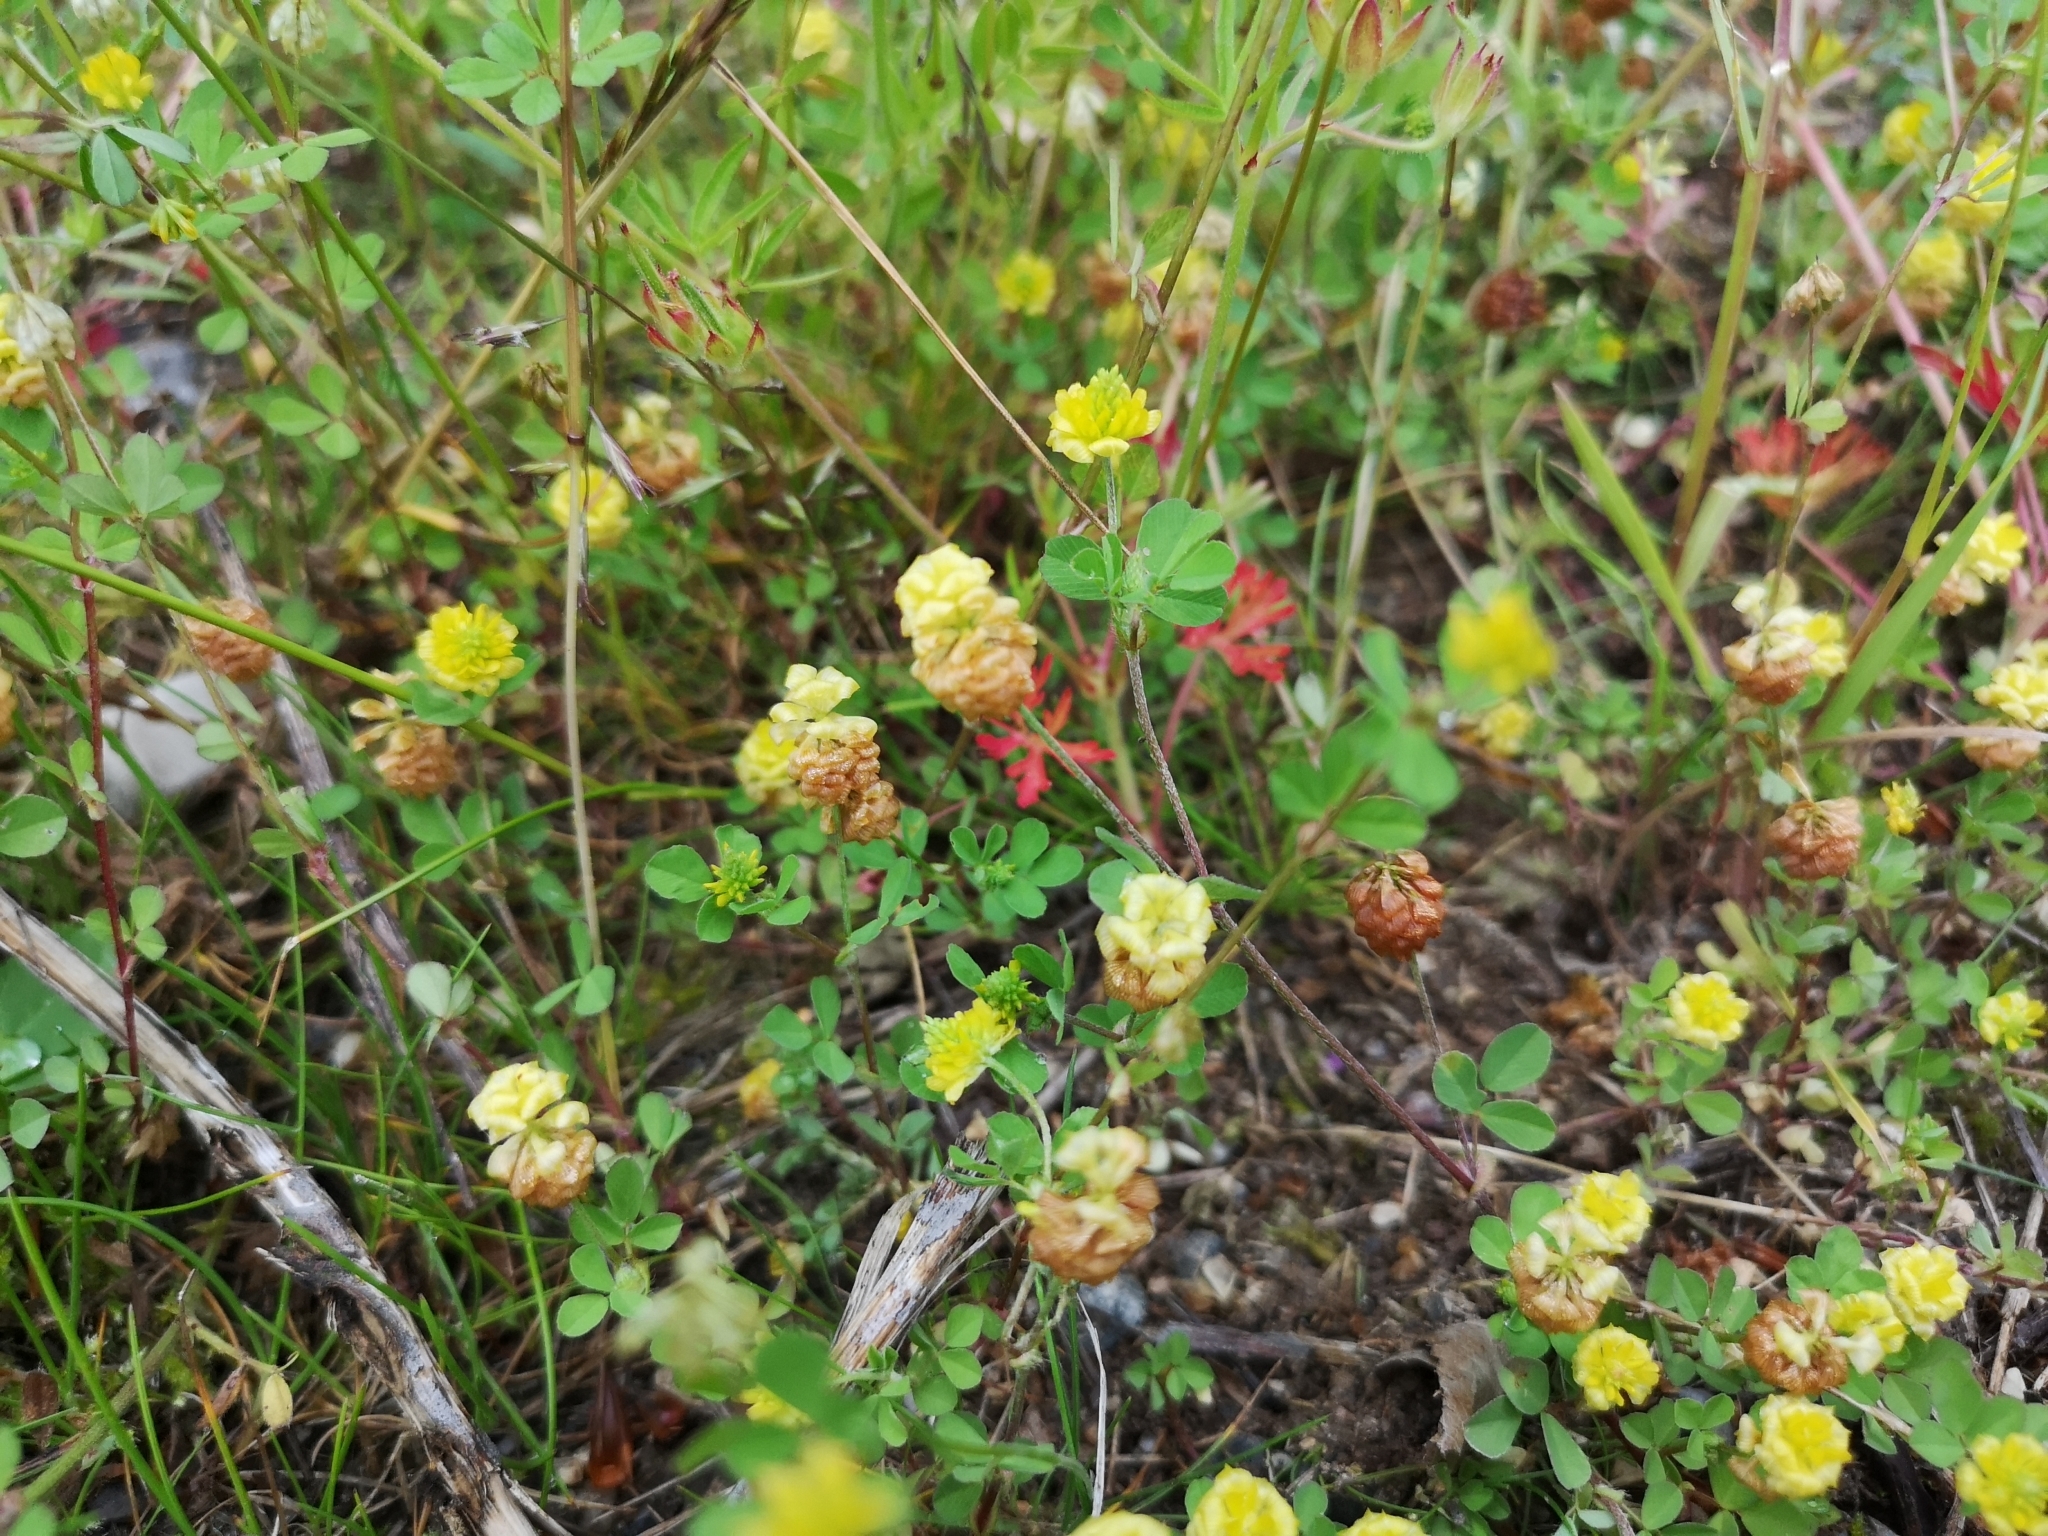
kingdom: Plantae
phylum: Tracheophyta
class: Magnoliopsida
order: Fabales
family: Fabaceae
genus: Trifolium
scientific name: Trifolium campestre
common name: Field clover
